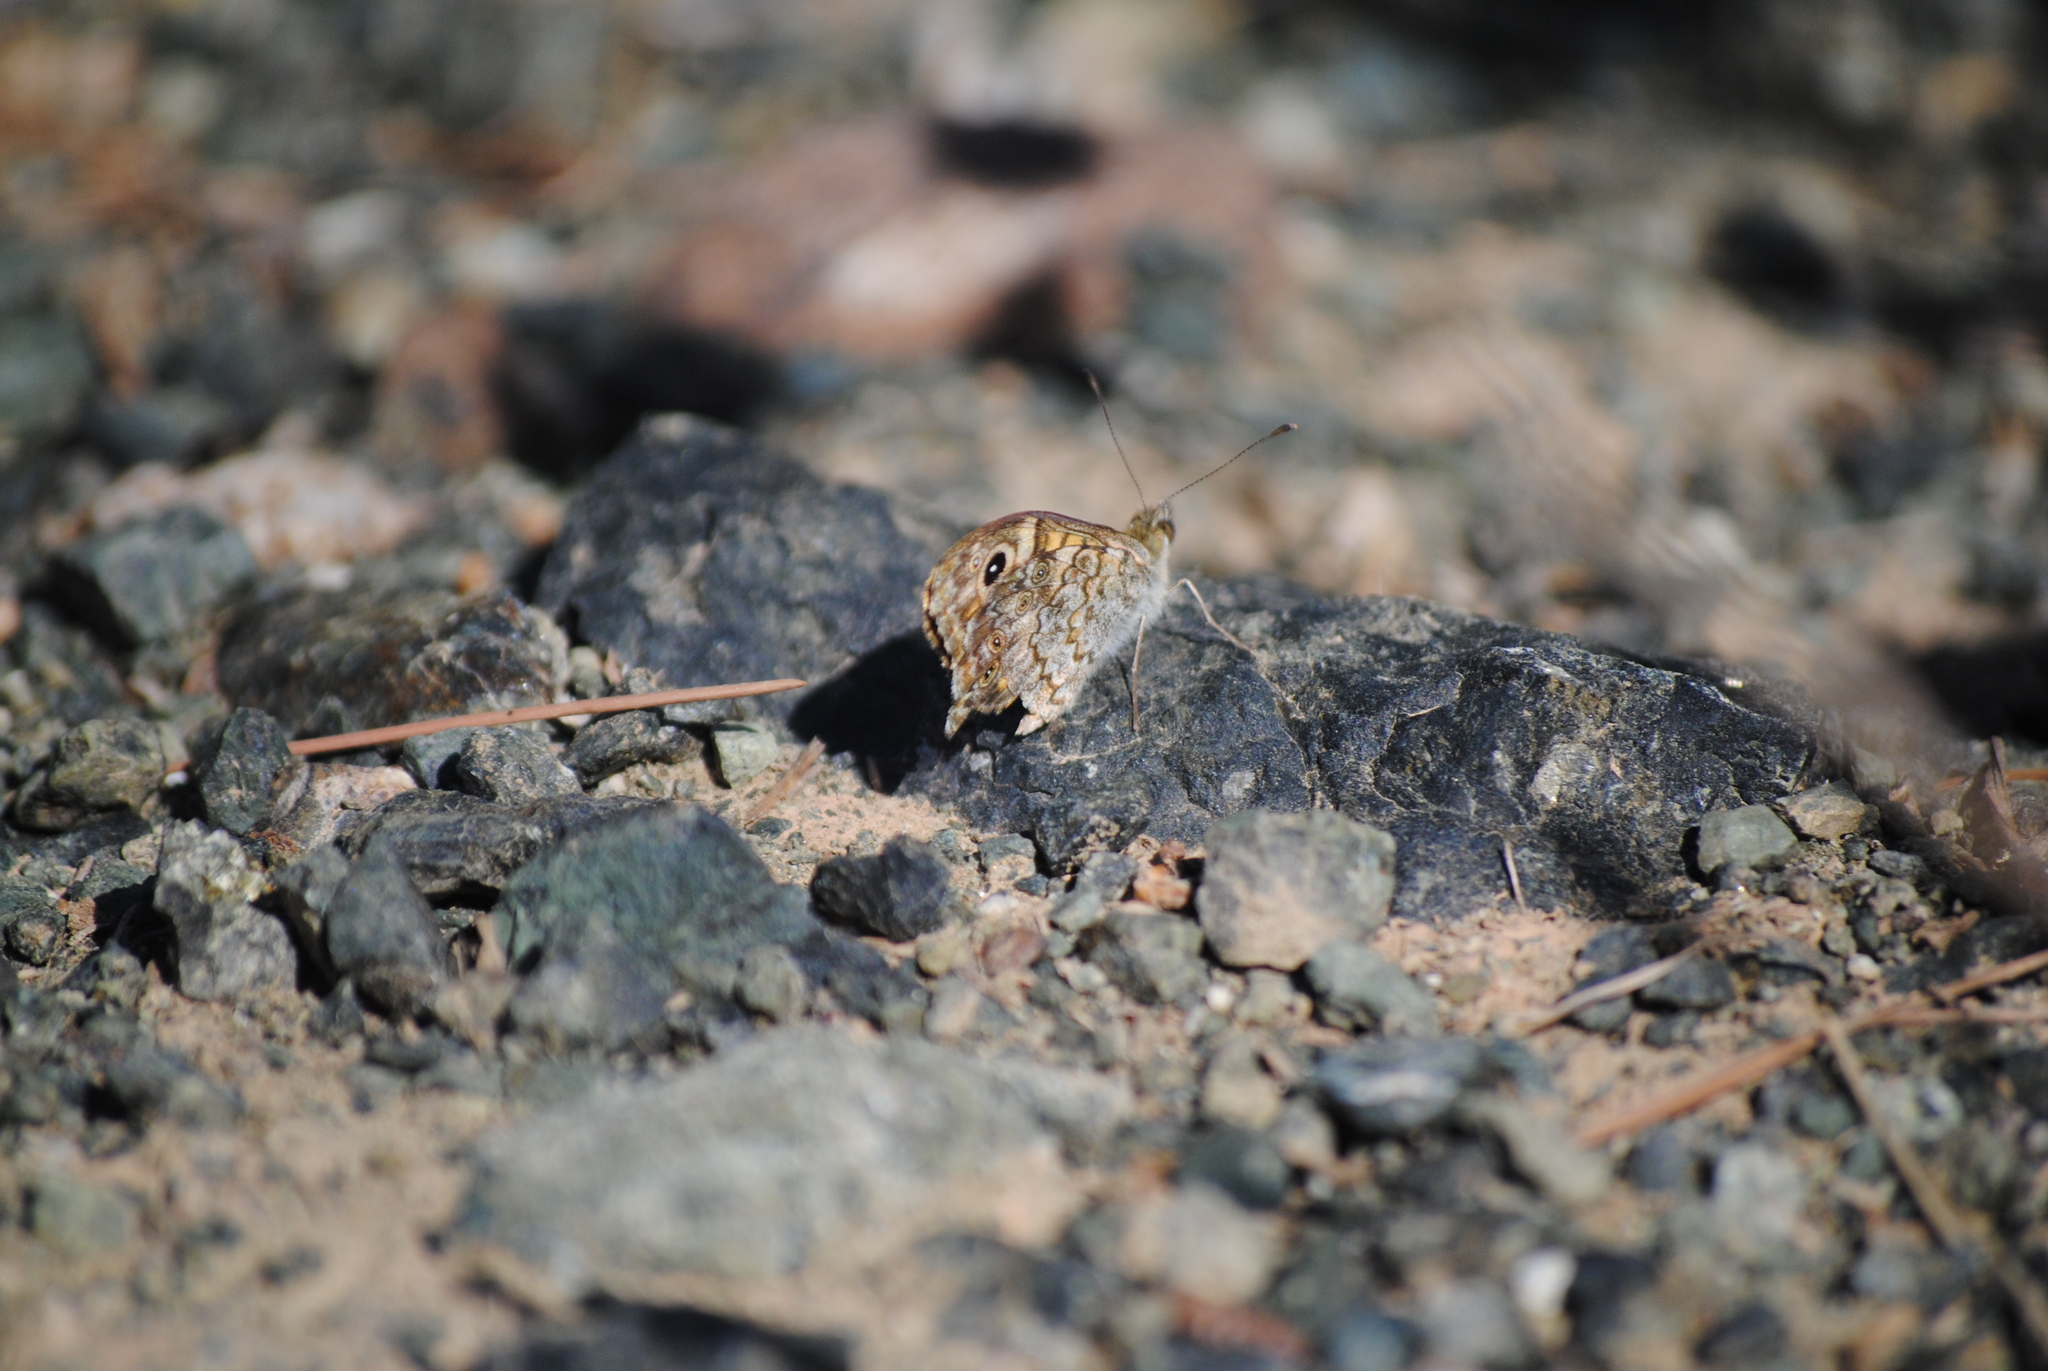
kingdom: Animalia
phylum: Arthropoda
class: Insecta
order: Lepidoptera
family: Nymphalidae
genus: Pararge
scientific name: Pararge Lasiommata megera
